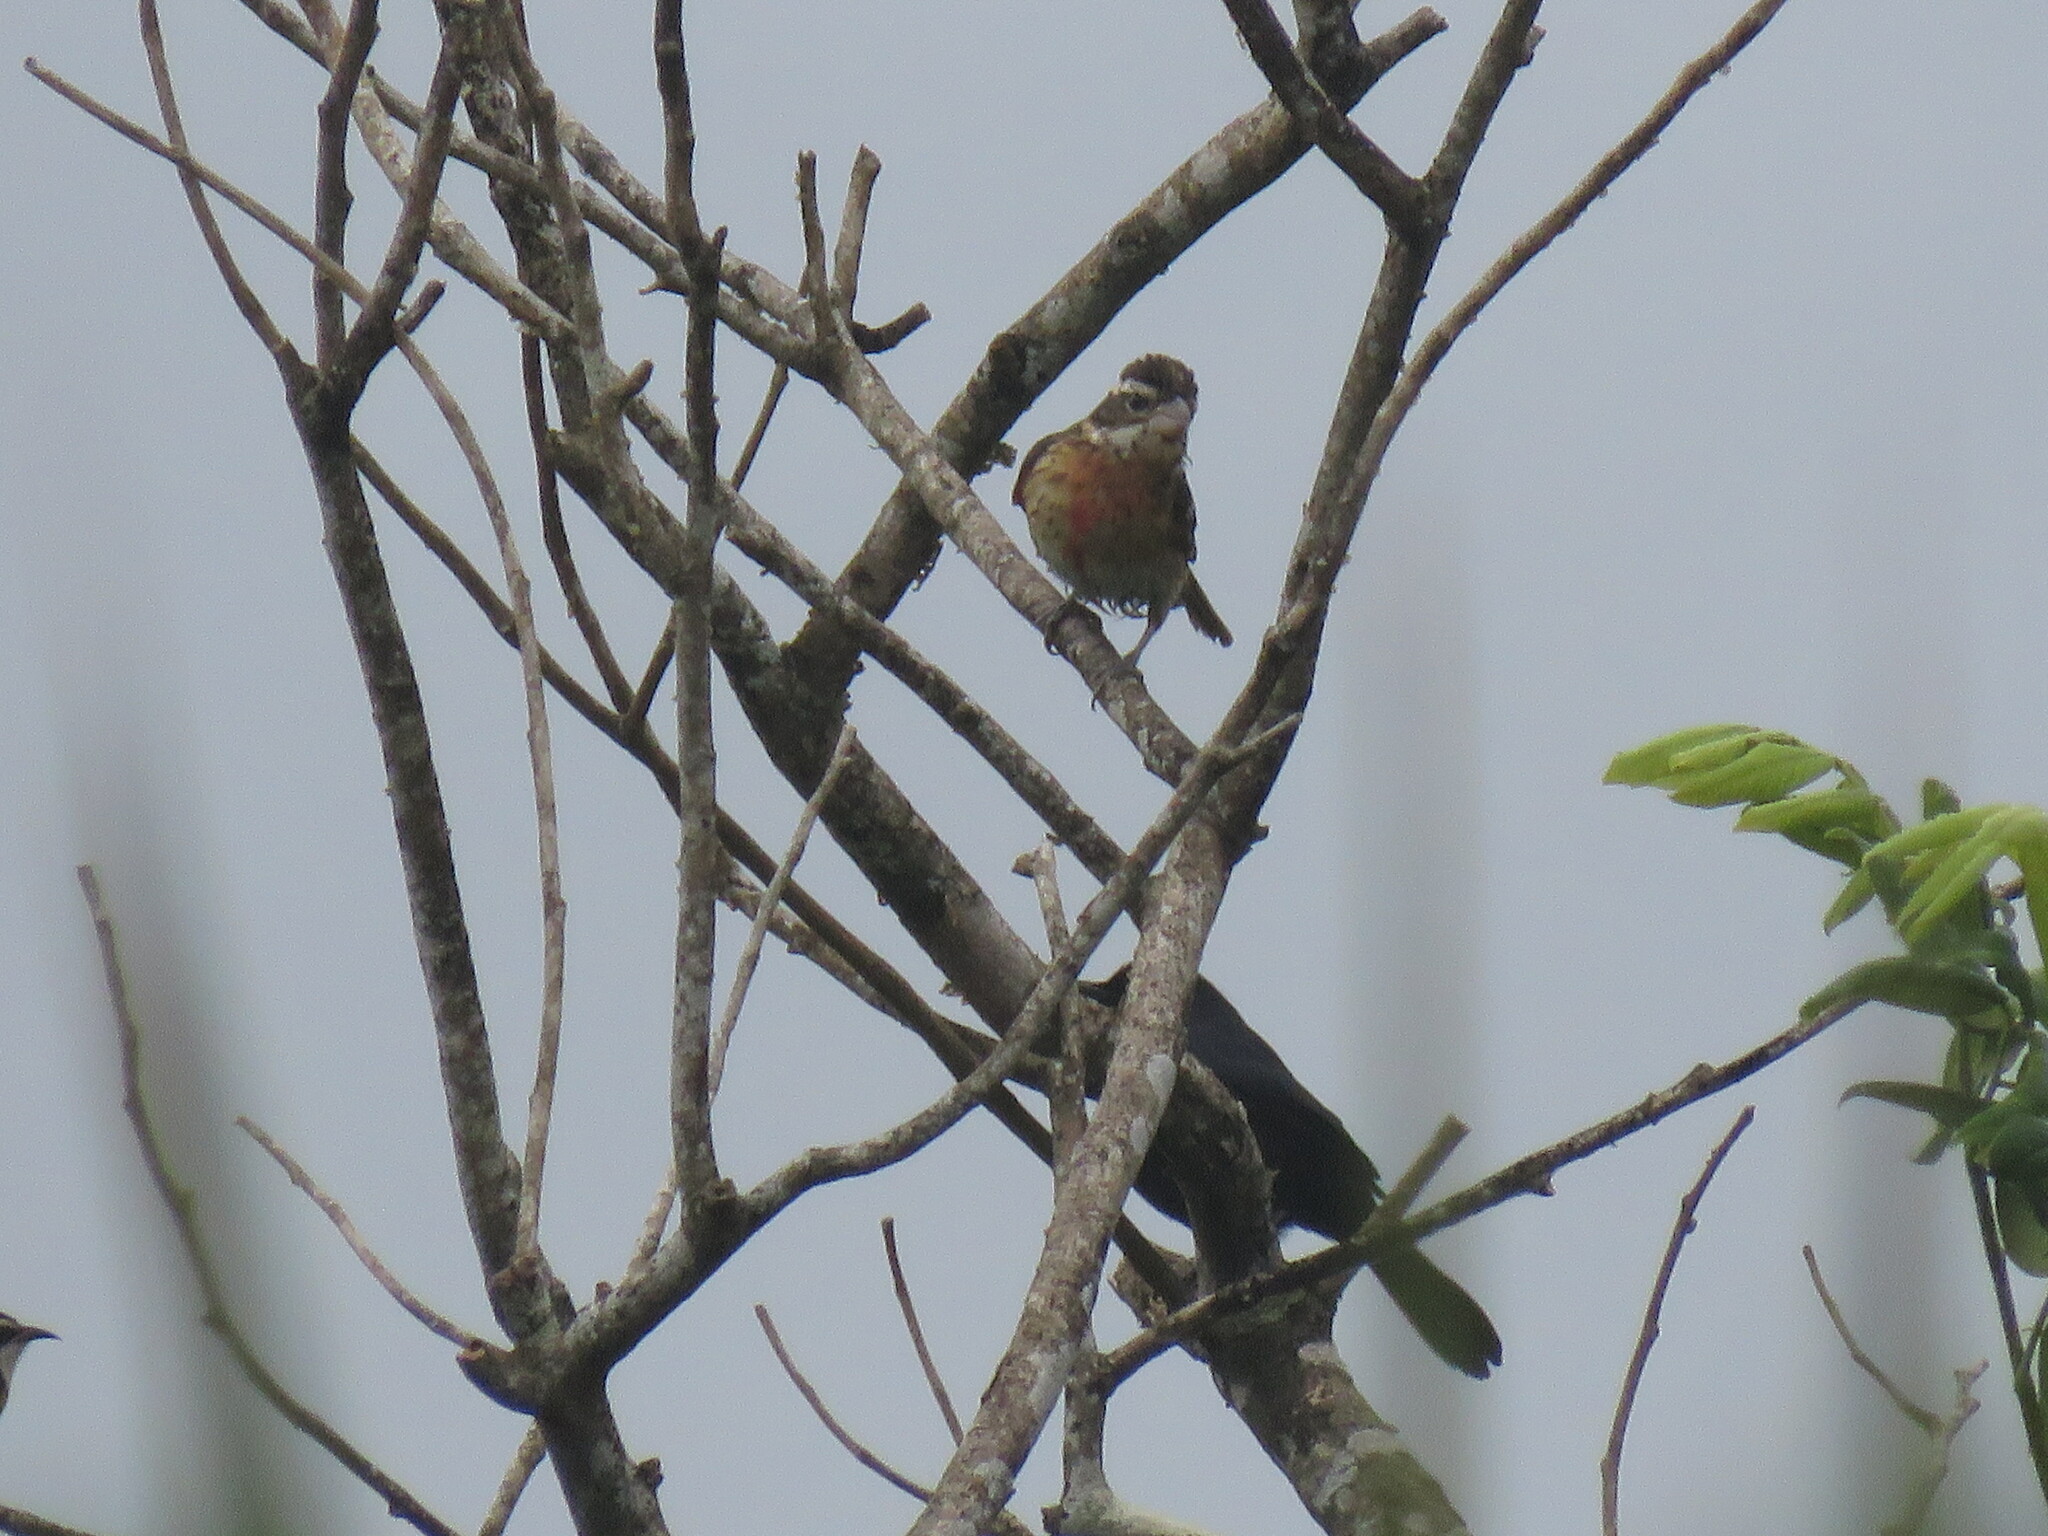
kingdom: Animalia
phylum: Chordata
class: Aves
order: Passeriformes
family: Cardinalidae
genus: Pheucticus
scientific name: Pheucticus ludovicianus
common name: Rose-breasted grosbeak
